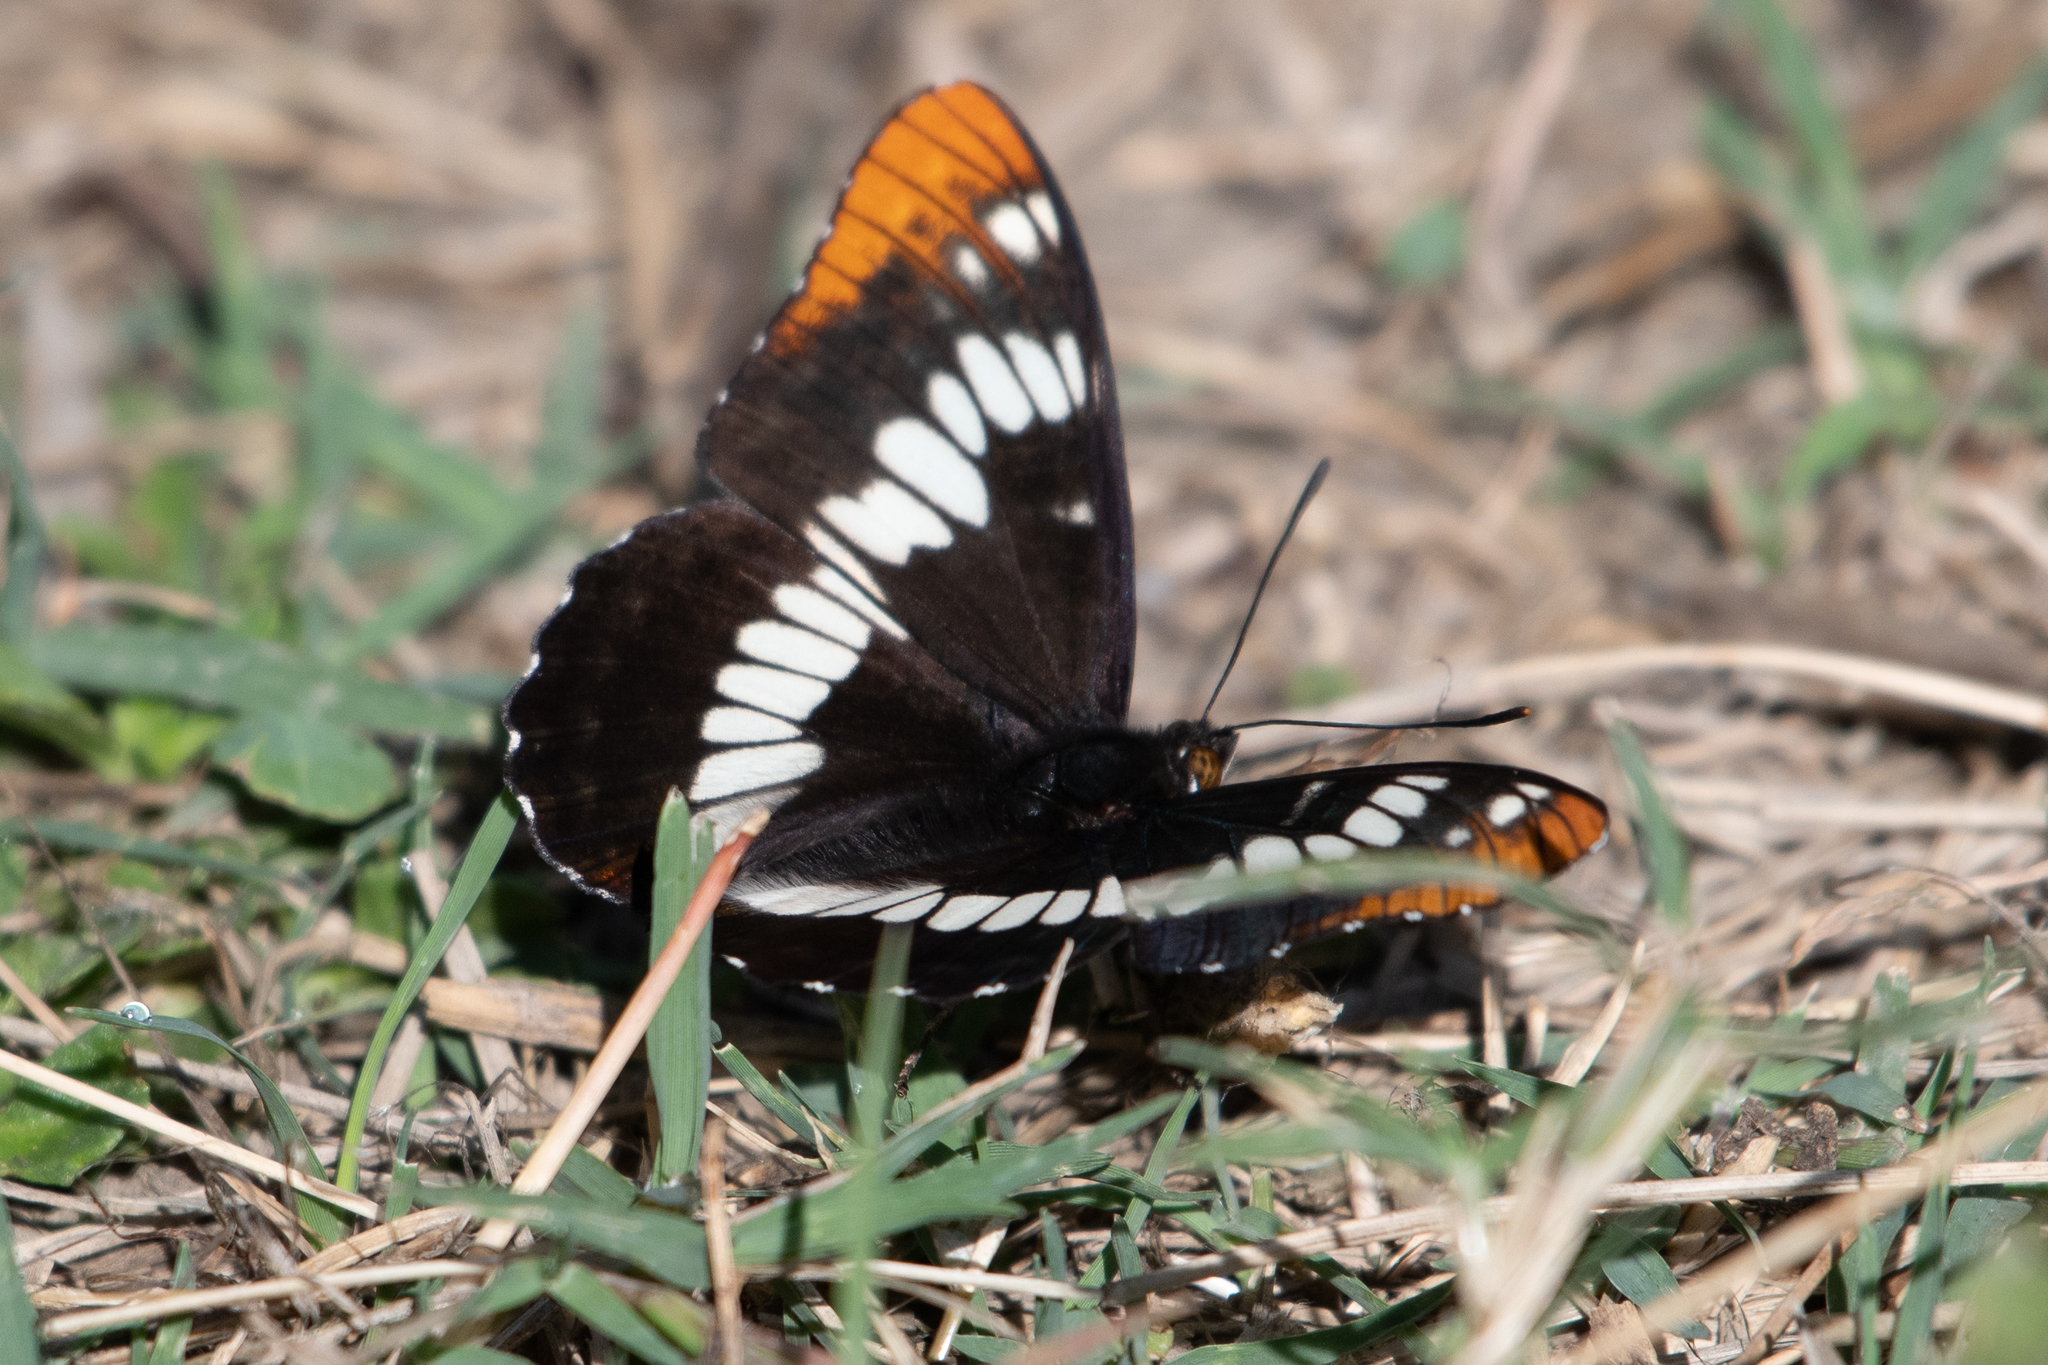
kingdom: Animalia
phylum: Arthropoda
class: Insecta
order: Lepidoptera
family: Nymphalidae
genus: Limenitis
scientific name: Limenitis lorquini
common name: Lorquin's admiral
